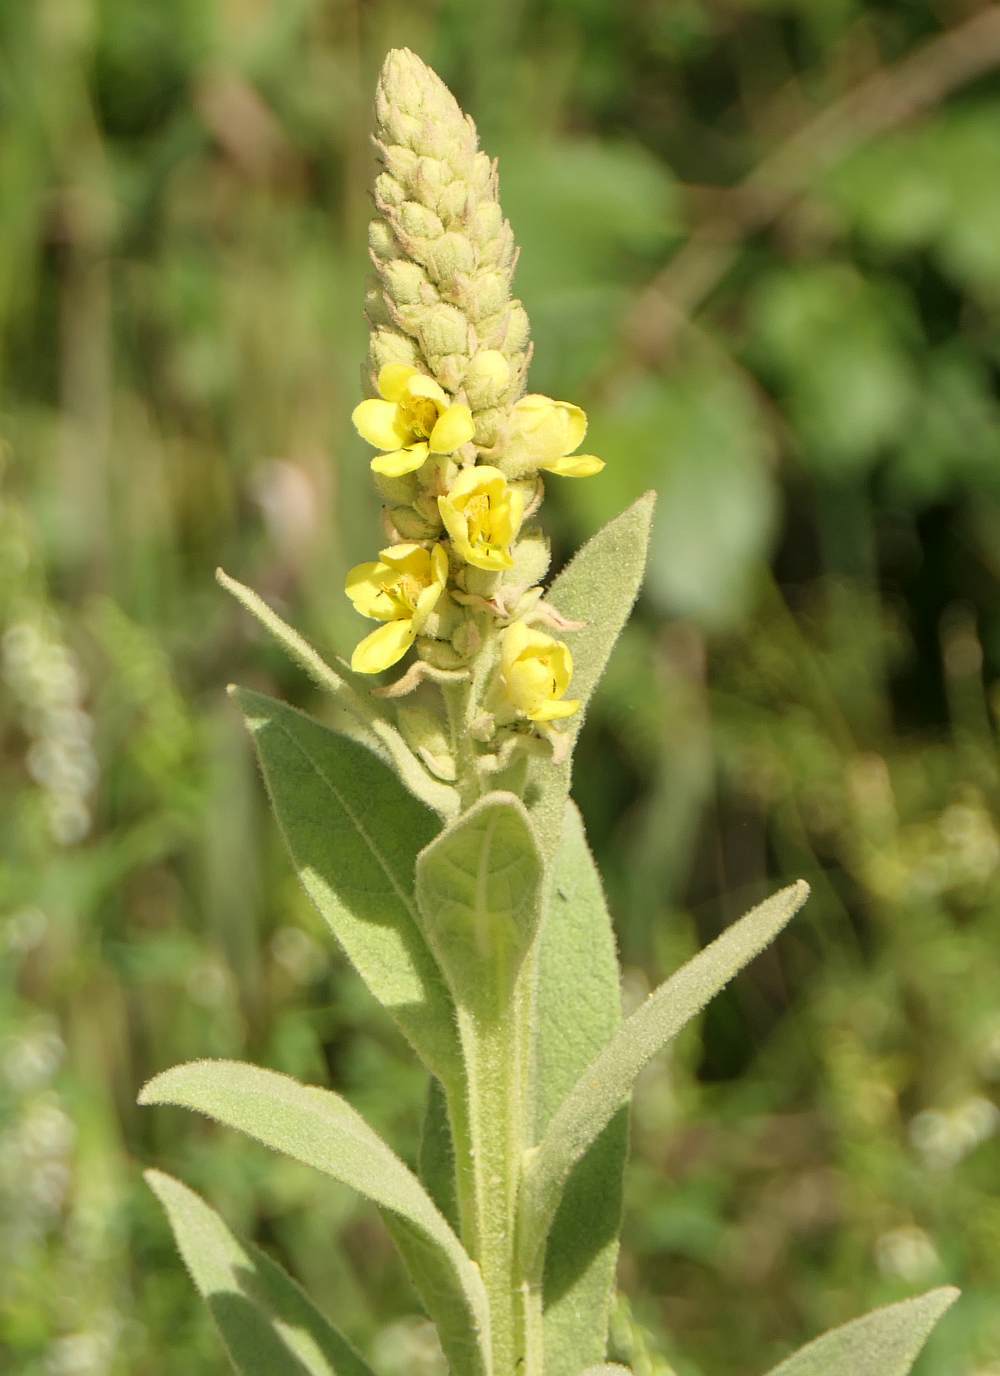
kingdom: Plantae
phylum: Tracheophyta
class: Magnoliopsida
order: Lamiales
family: Scrophulariaceae
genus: Verbascum
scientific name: Verbascum thapsus
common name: Common mullein
